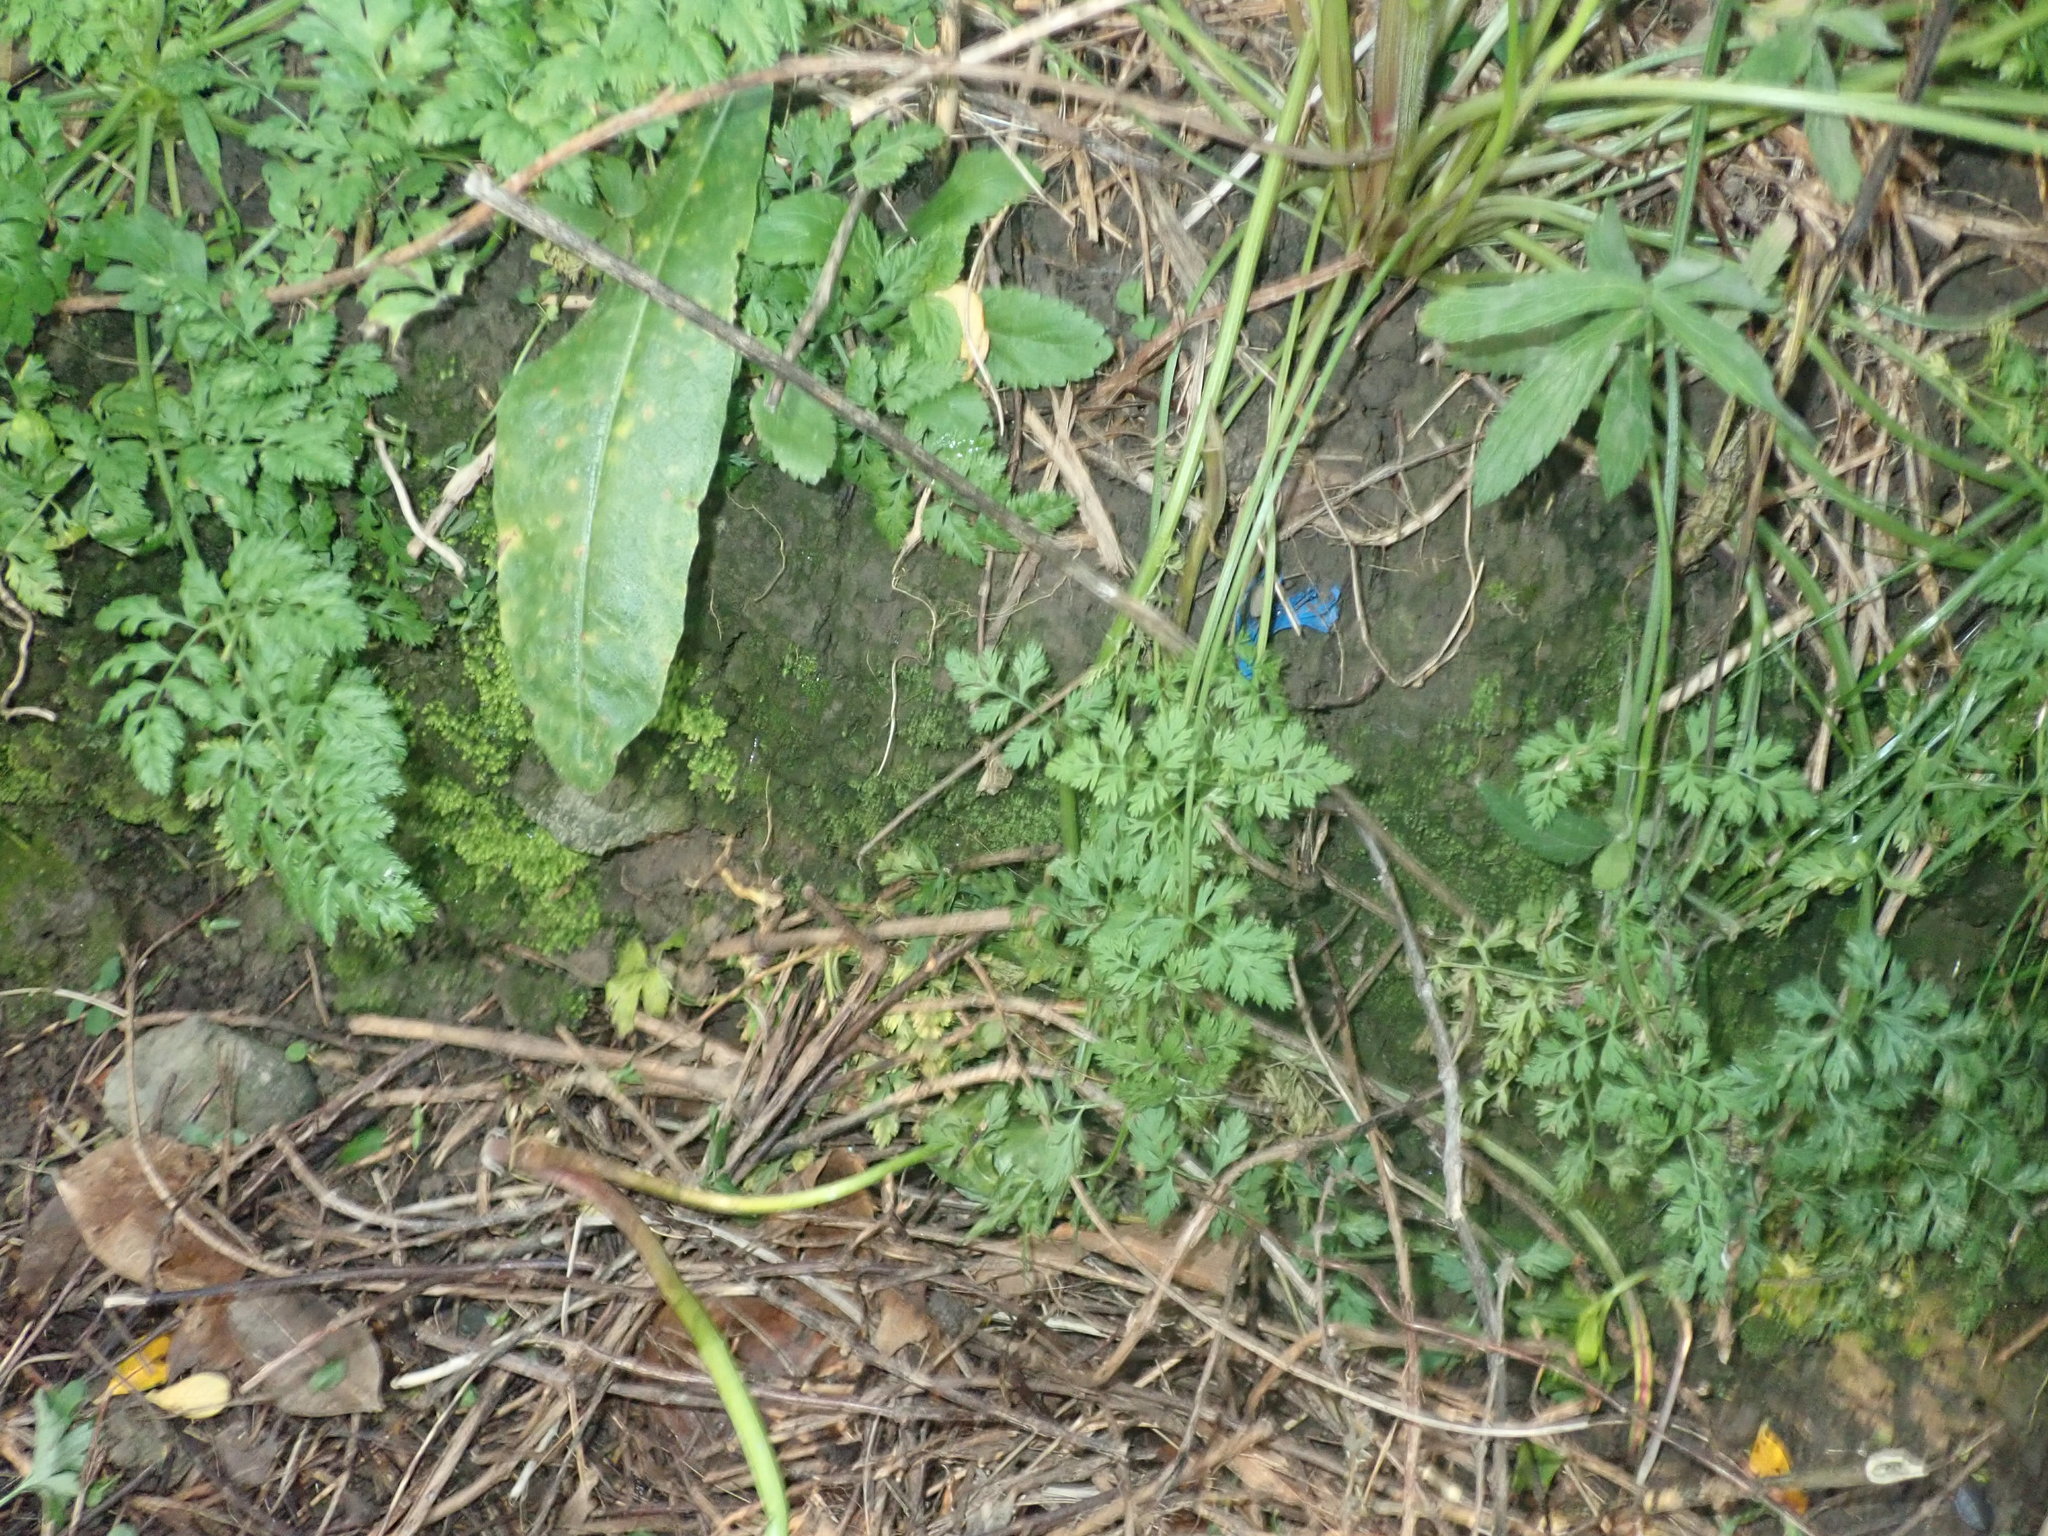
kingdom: Plantae
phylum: Tracheophyta
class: Magnoliopsida
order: Dipsacales
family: Caprifoliaceae
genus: Lonicera
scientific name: Lonicera japonica
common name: Japanese honeysuckle
